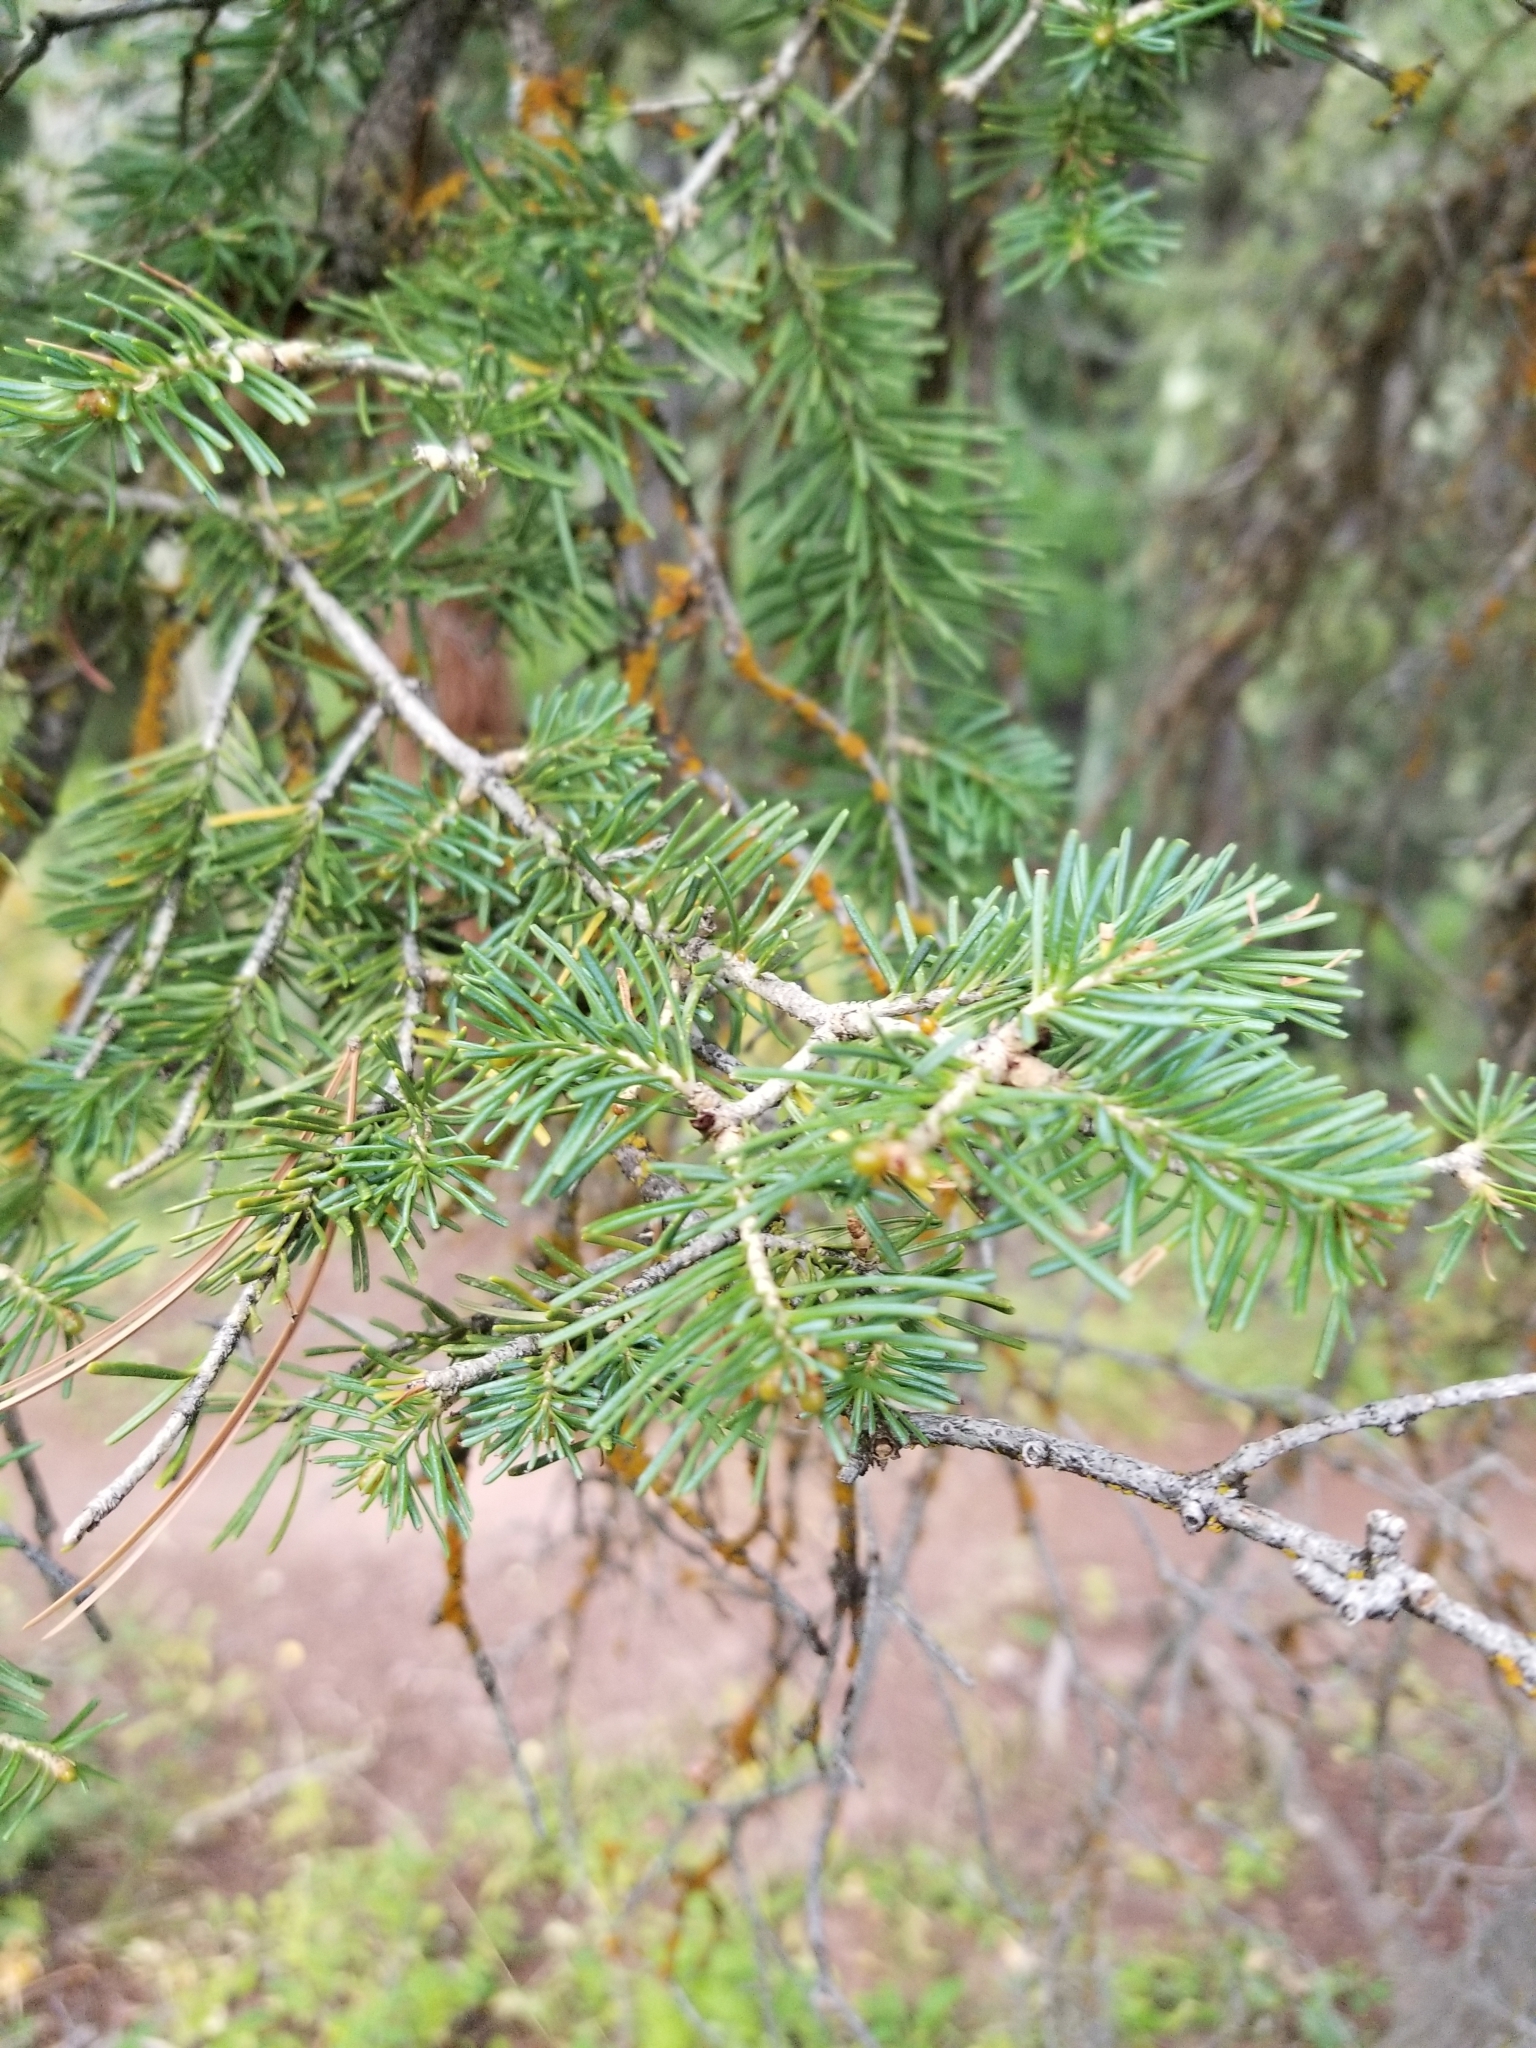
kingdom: Plantae
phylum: Tracheophyta
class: Pinopsida
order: Pinales
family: Pinaceae
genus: Abies
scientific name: Abies lasiocarpa
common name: Subalpine fir
